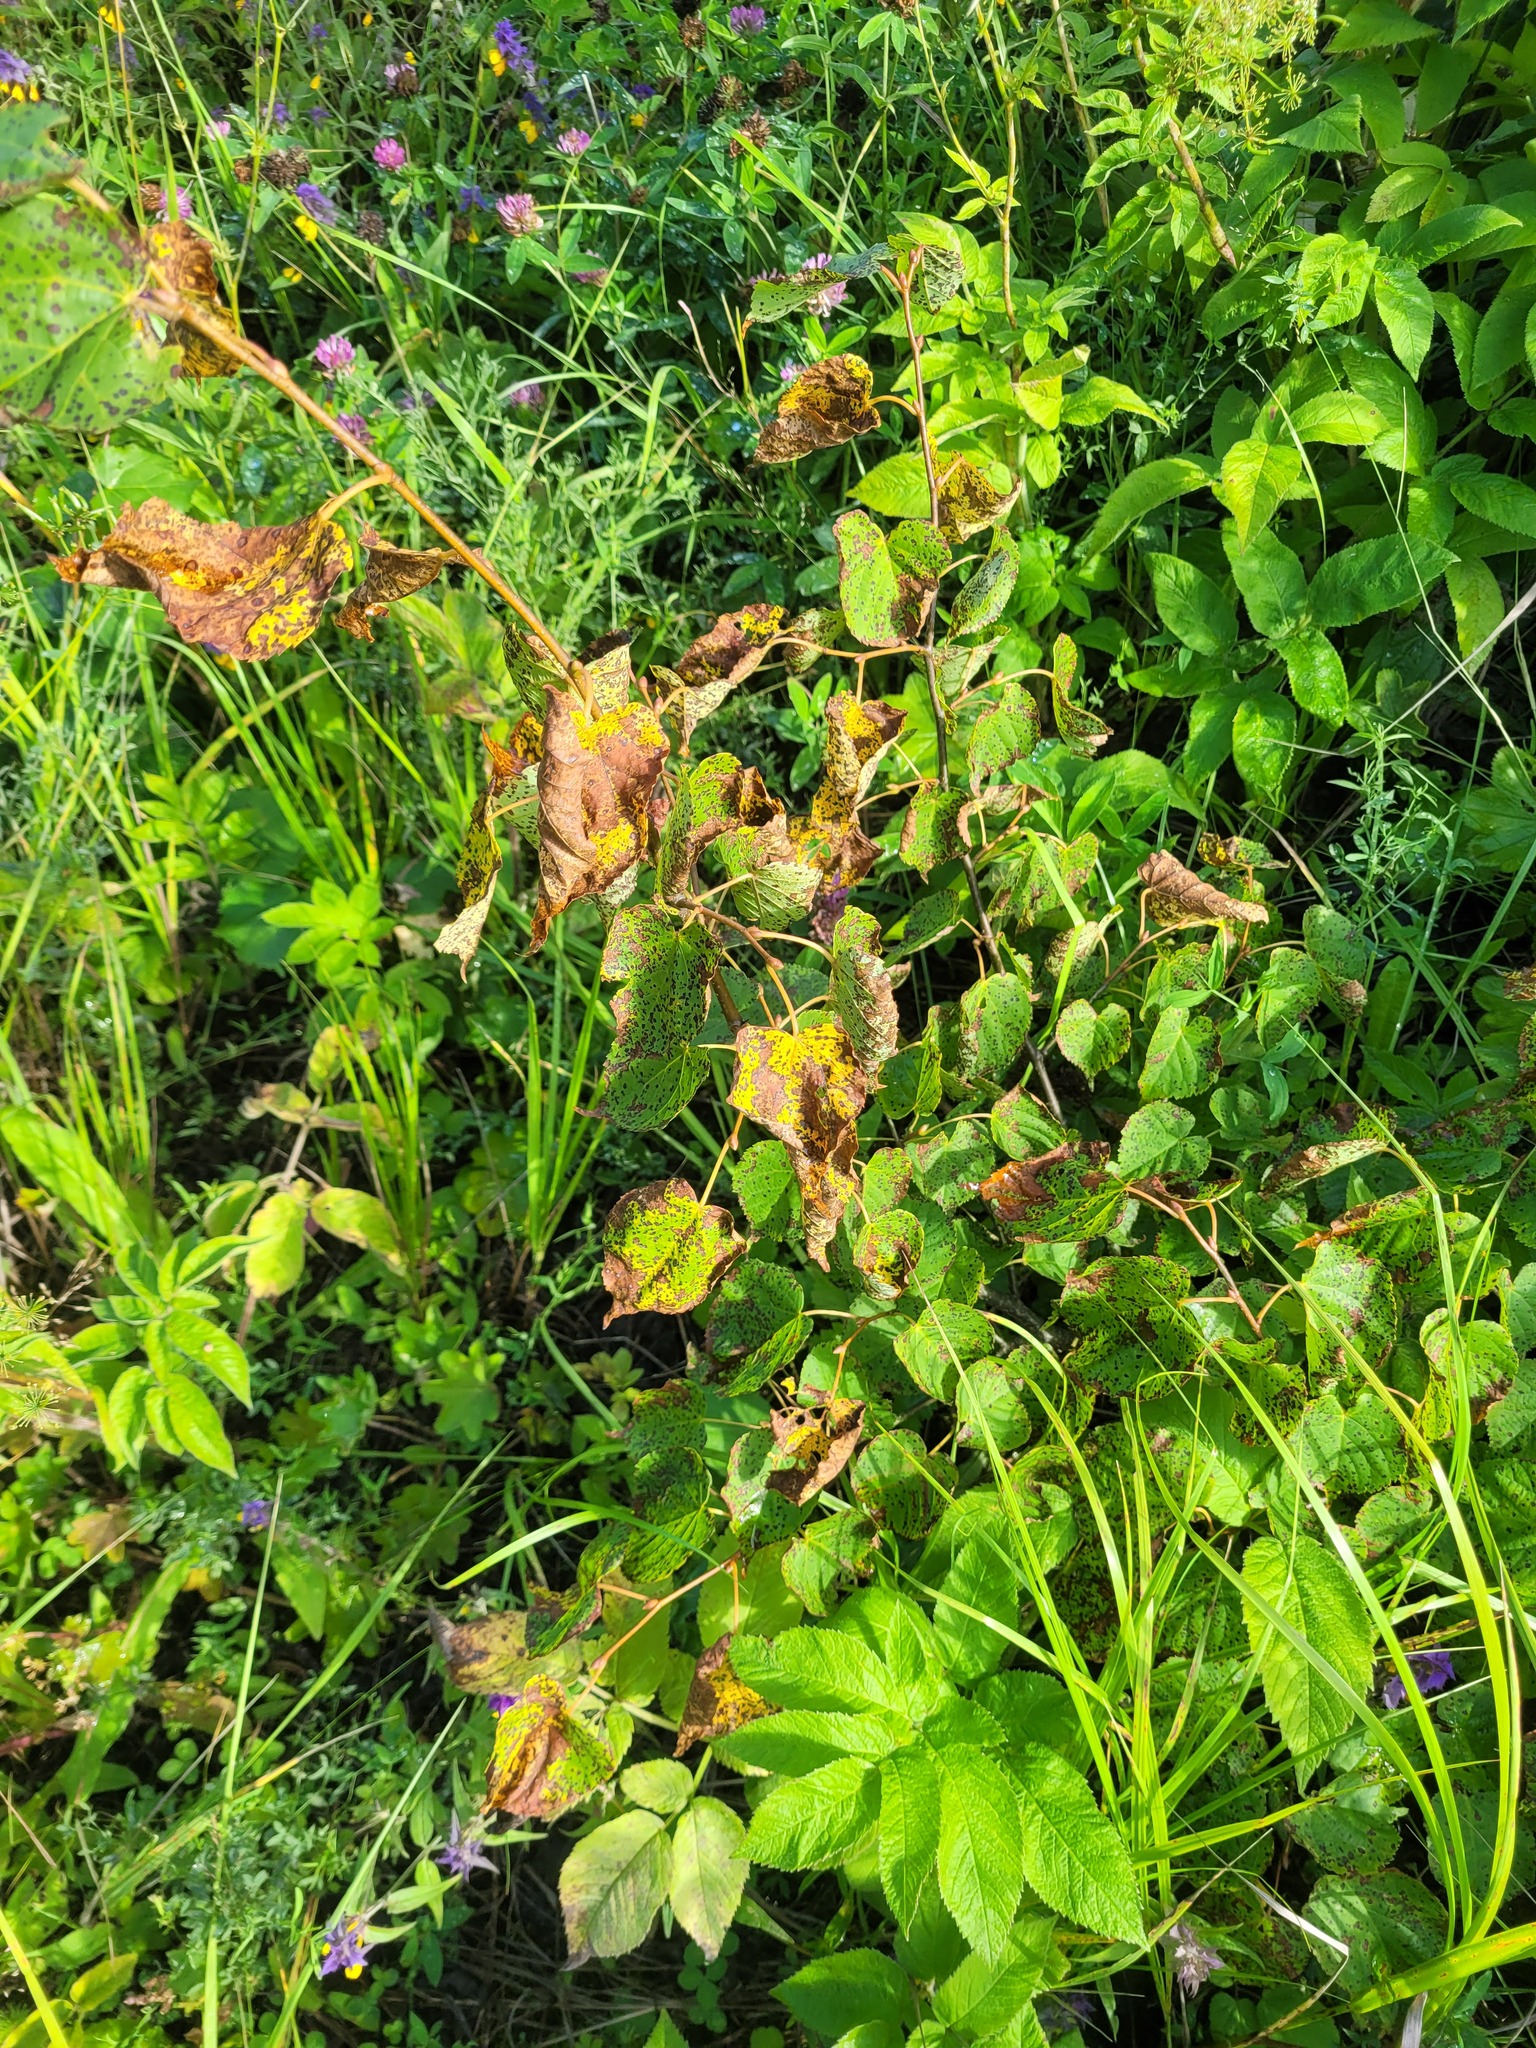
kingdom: Plantae
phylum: Tracheophyta
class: Magnoliopsida
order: Malvales
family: Malvaceae
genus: Tilia
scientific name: Tilia cordata
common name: Small-leaved lime
